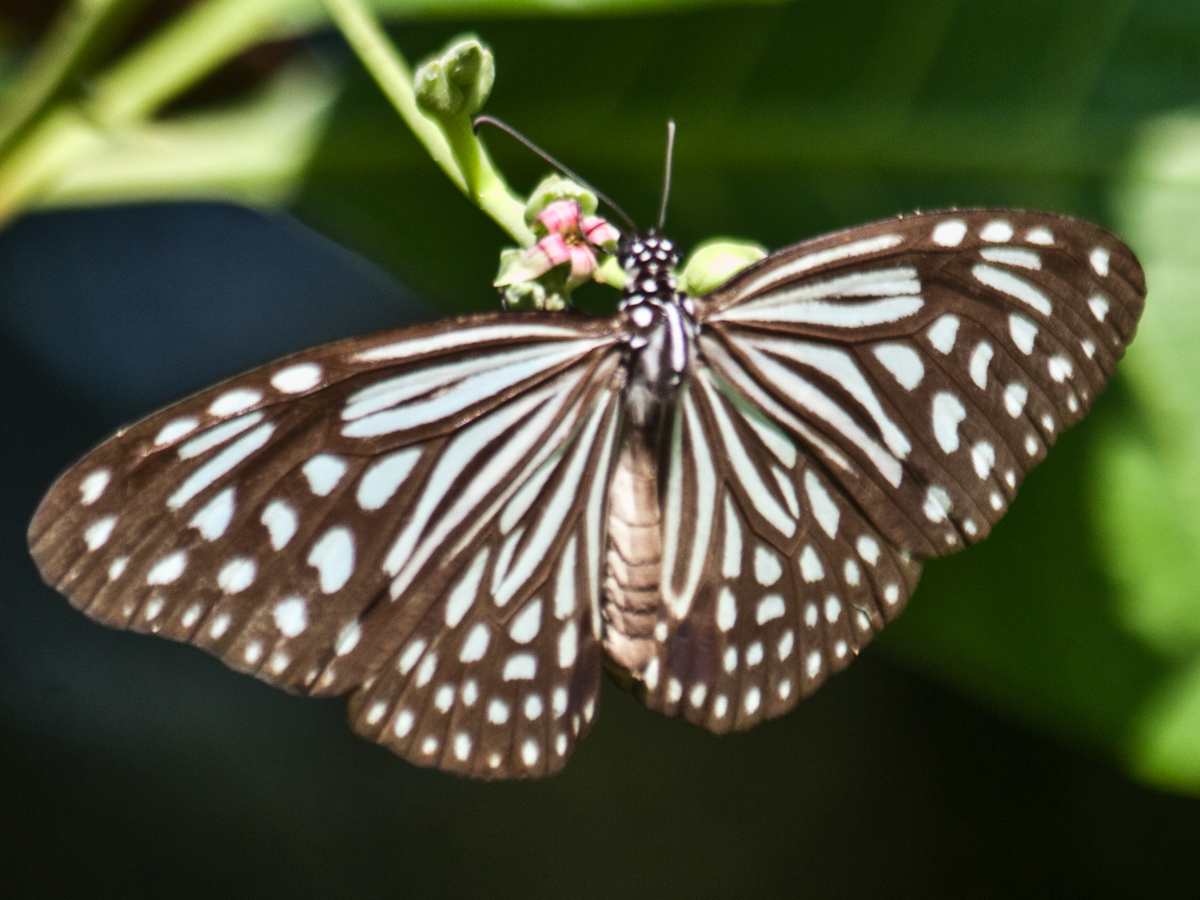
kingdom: Animalia
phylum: Arthropoda
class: Insecta
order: Lepidoptera
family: Nymphalidae
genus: Parantica
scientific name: Parantica agleoides
